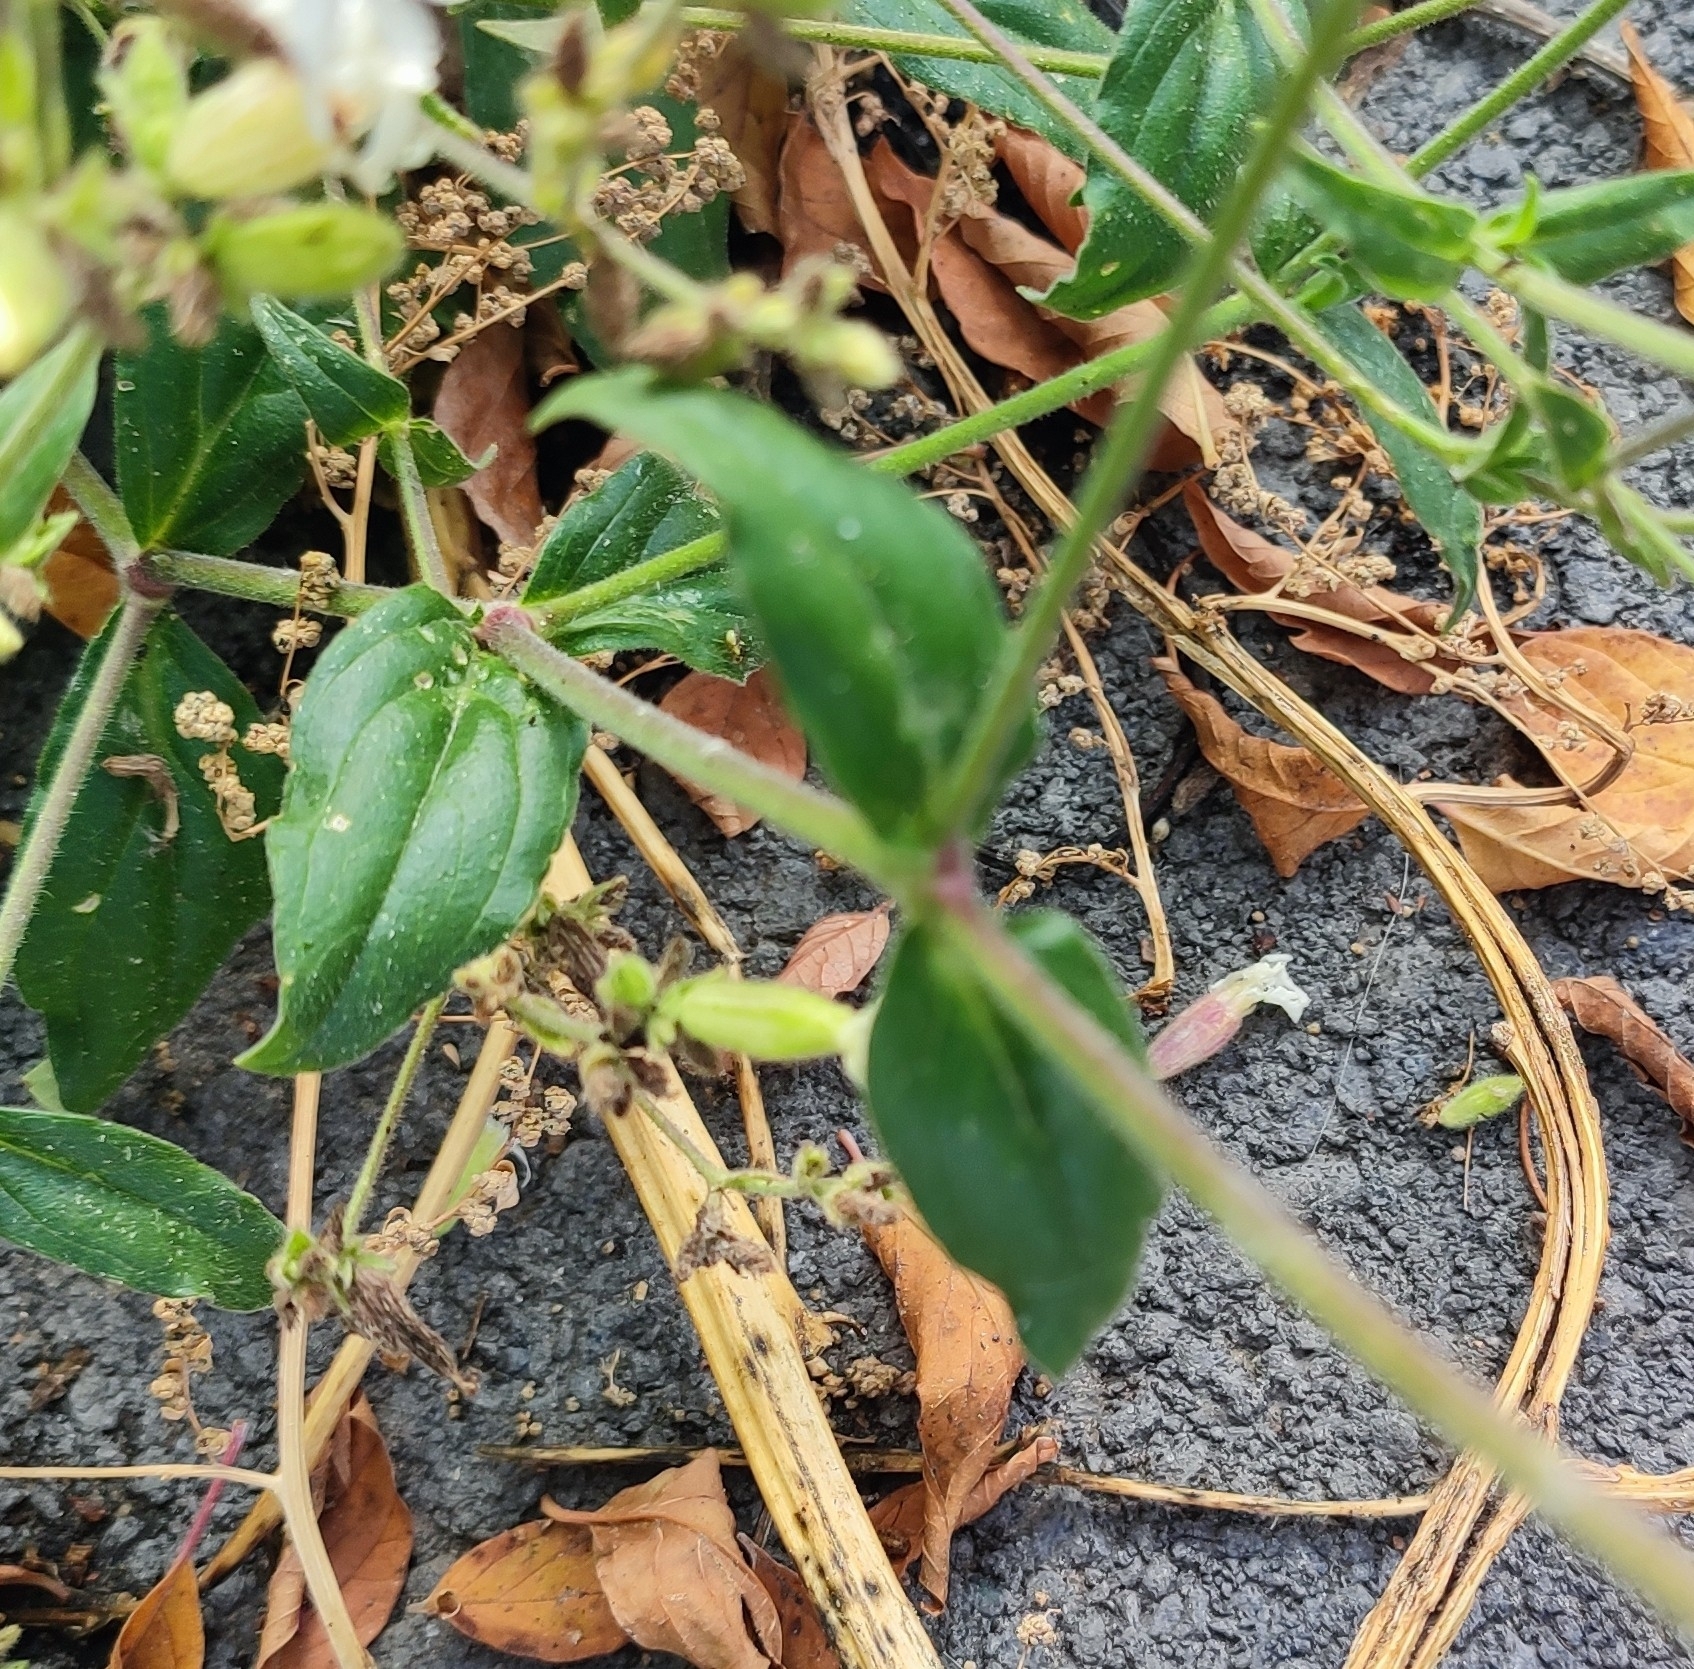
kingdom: Plantae
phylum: Tracheophyta
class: Magnoliopsida
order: Caryophyllales
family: Caryophyllaceae
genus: Silene
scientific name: Silene latifolia
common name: White campion
